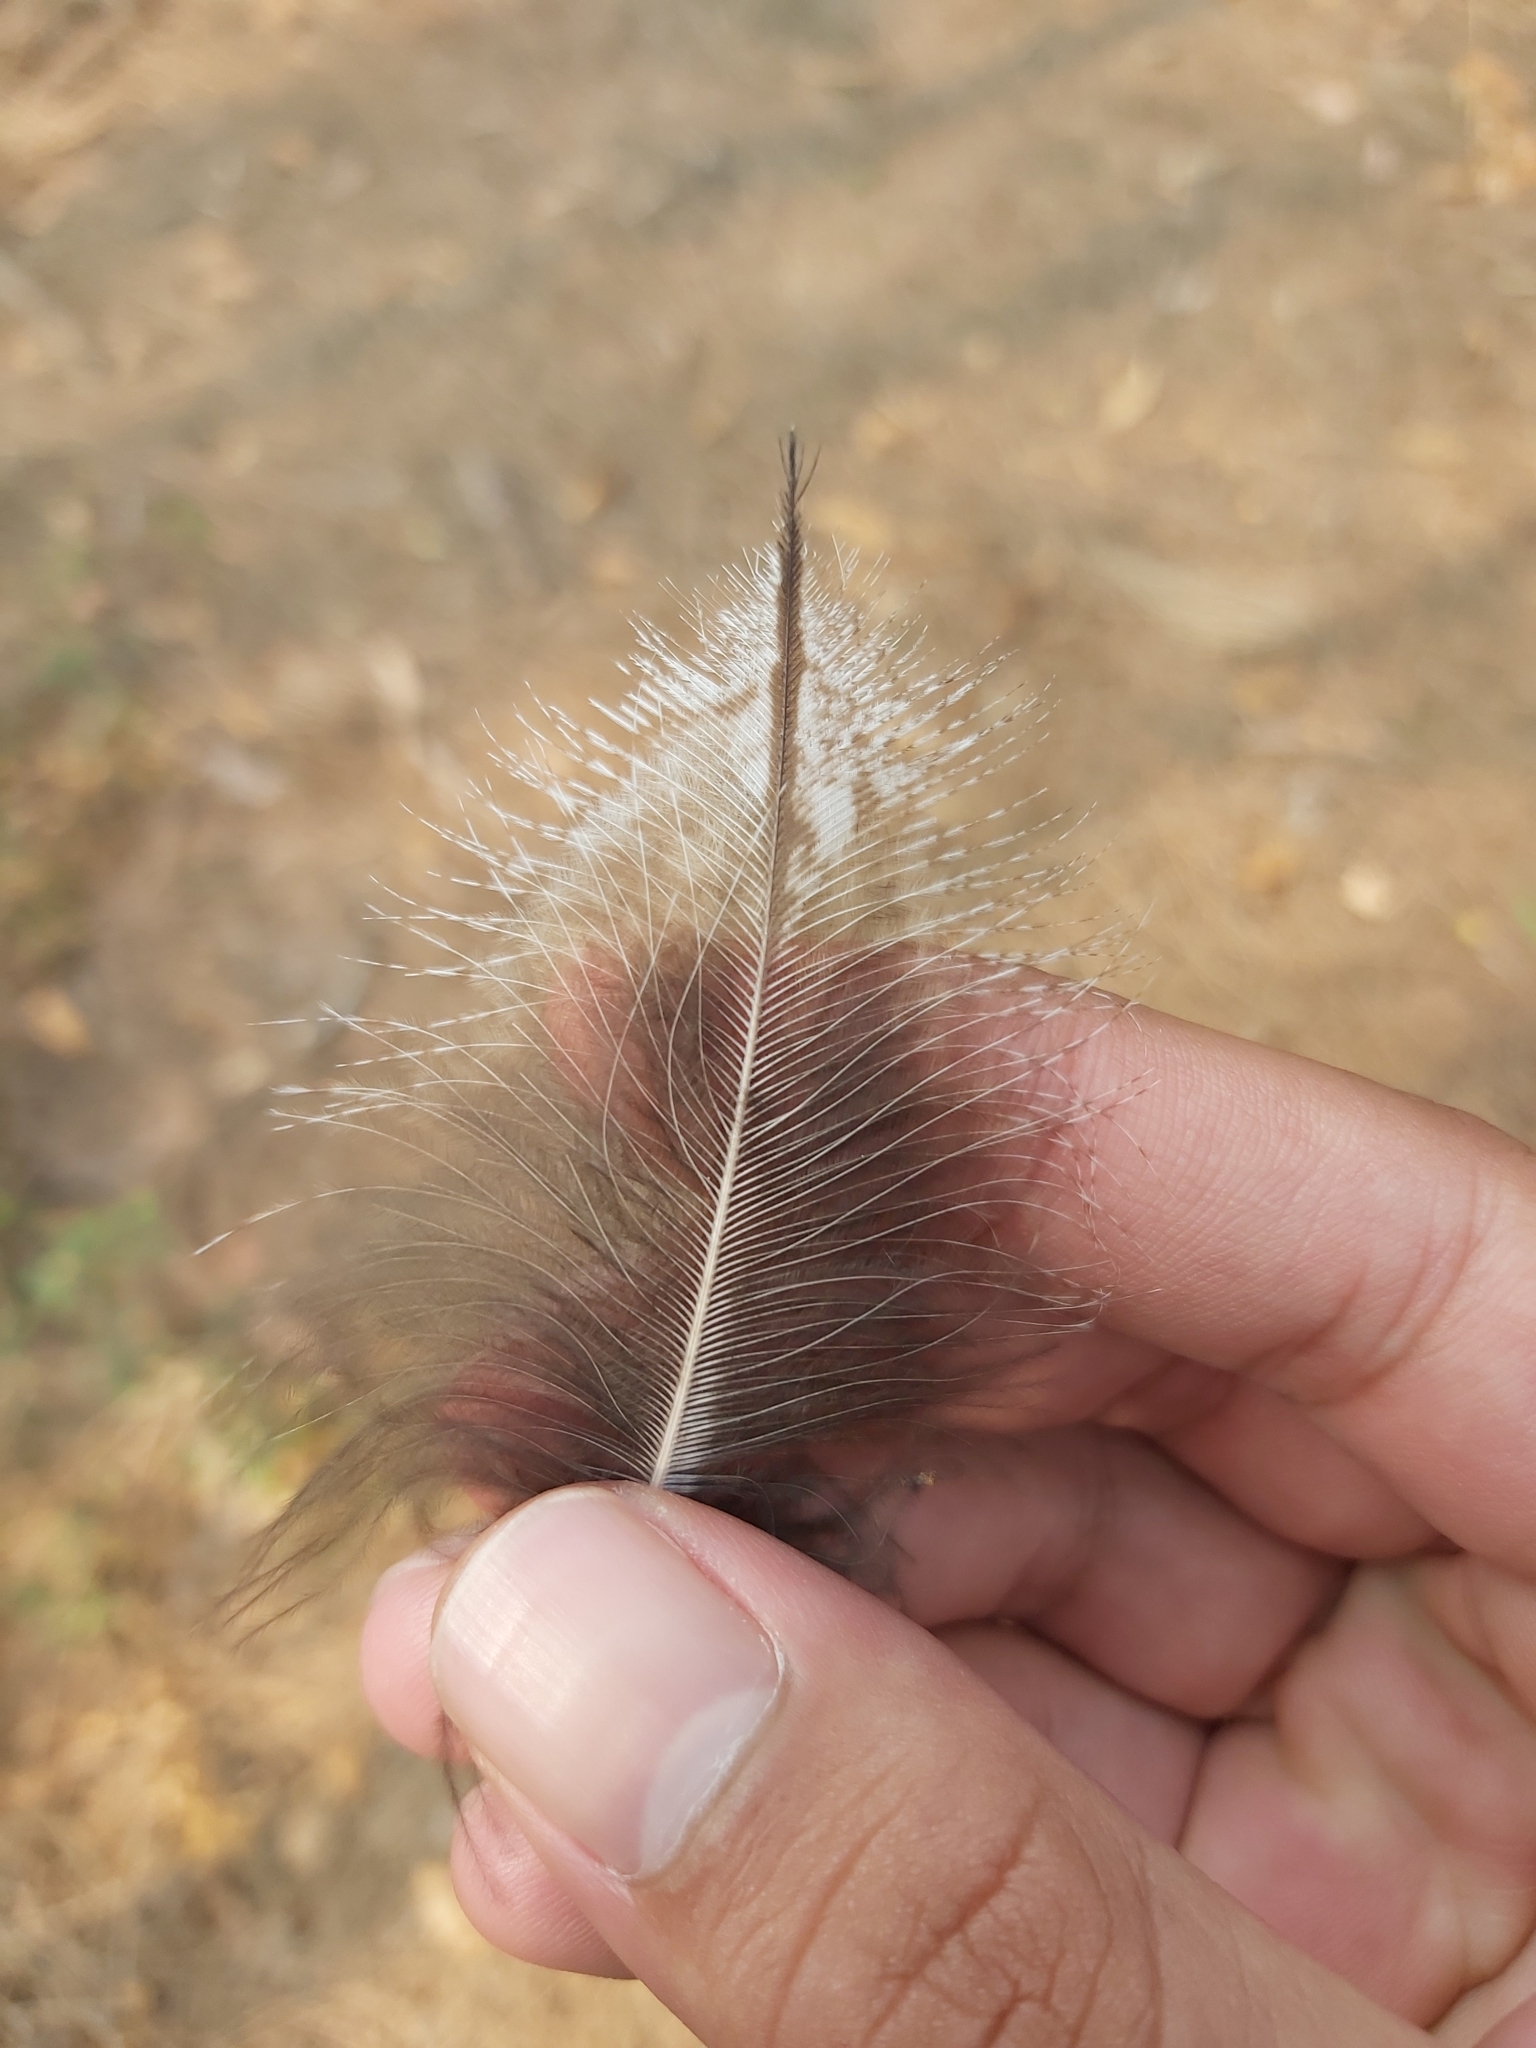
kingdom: Animalia
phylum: Chordata
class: Aves
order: Caprimulgiformes
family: Podargidae
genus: Podargus
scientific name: Podargus strigoides
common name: Tawny frogmouth
